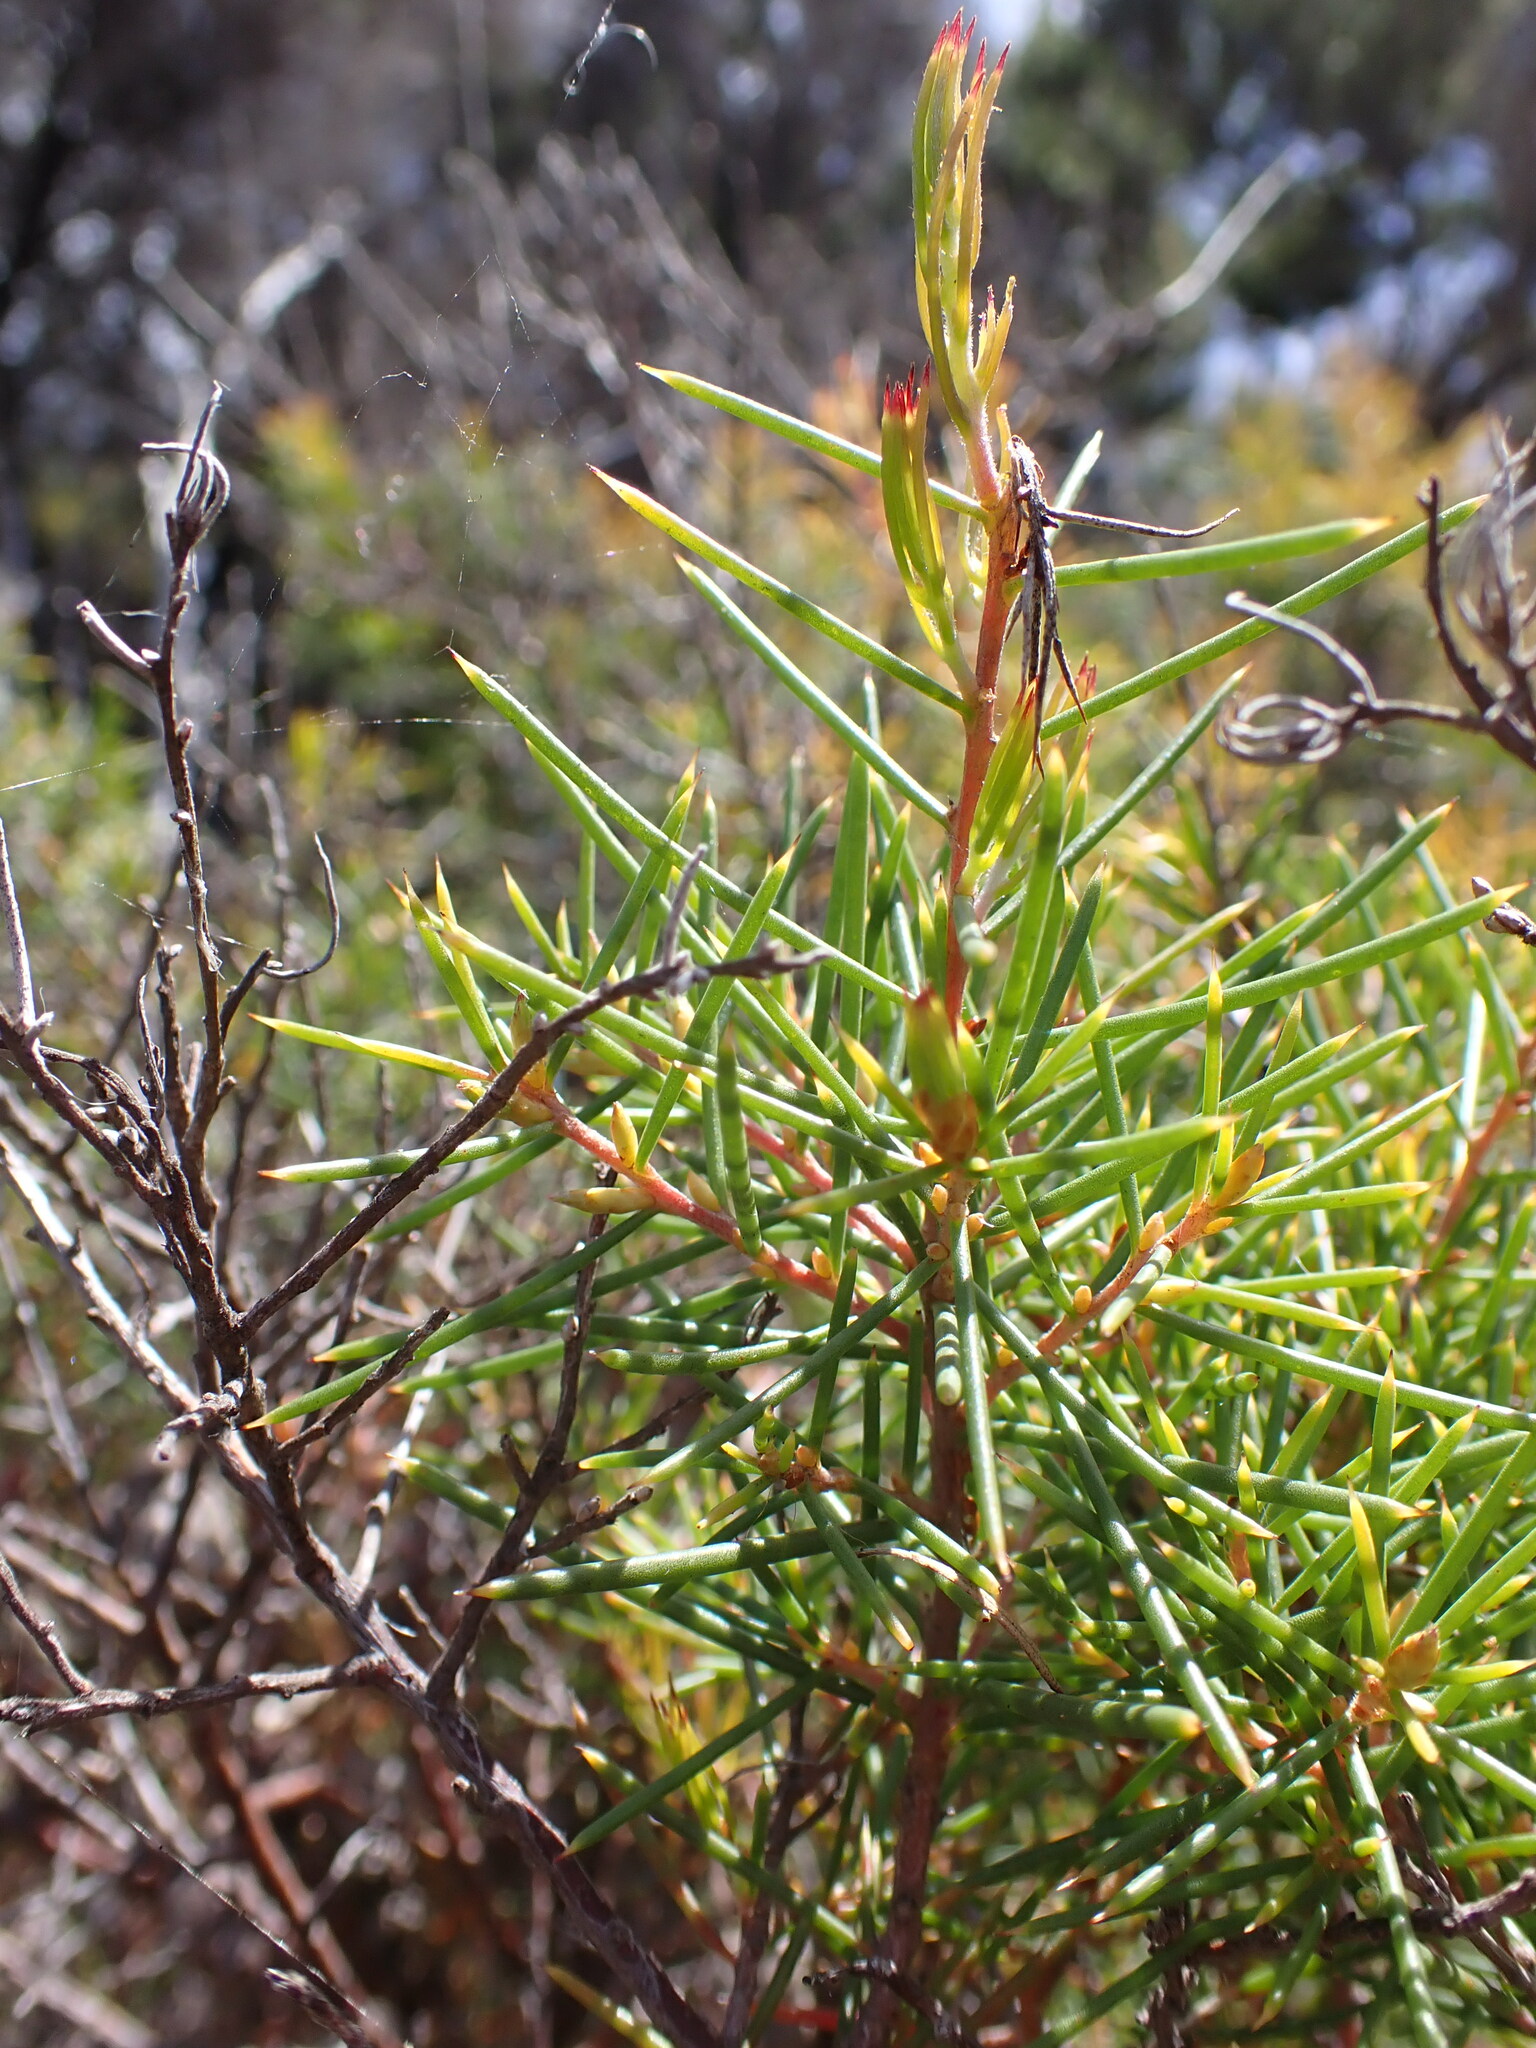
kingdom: Plantae
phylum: Tracheophyta
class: Magnoliopsida
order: Proteales
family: Proteaceae
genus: Hakea
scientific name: Hakea sericea
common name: Needle bush
